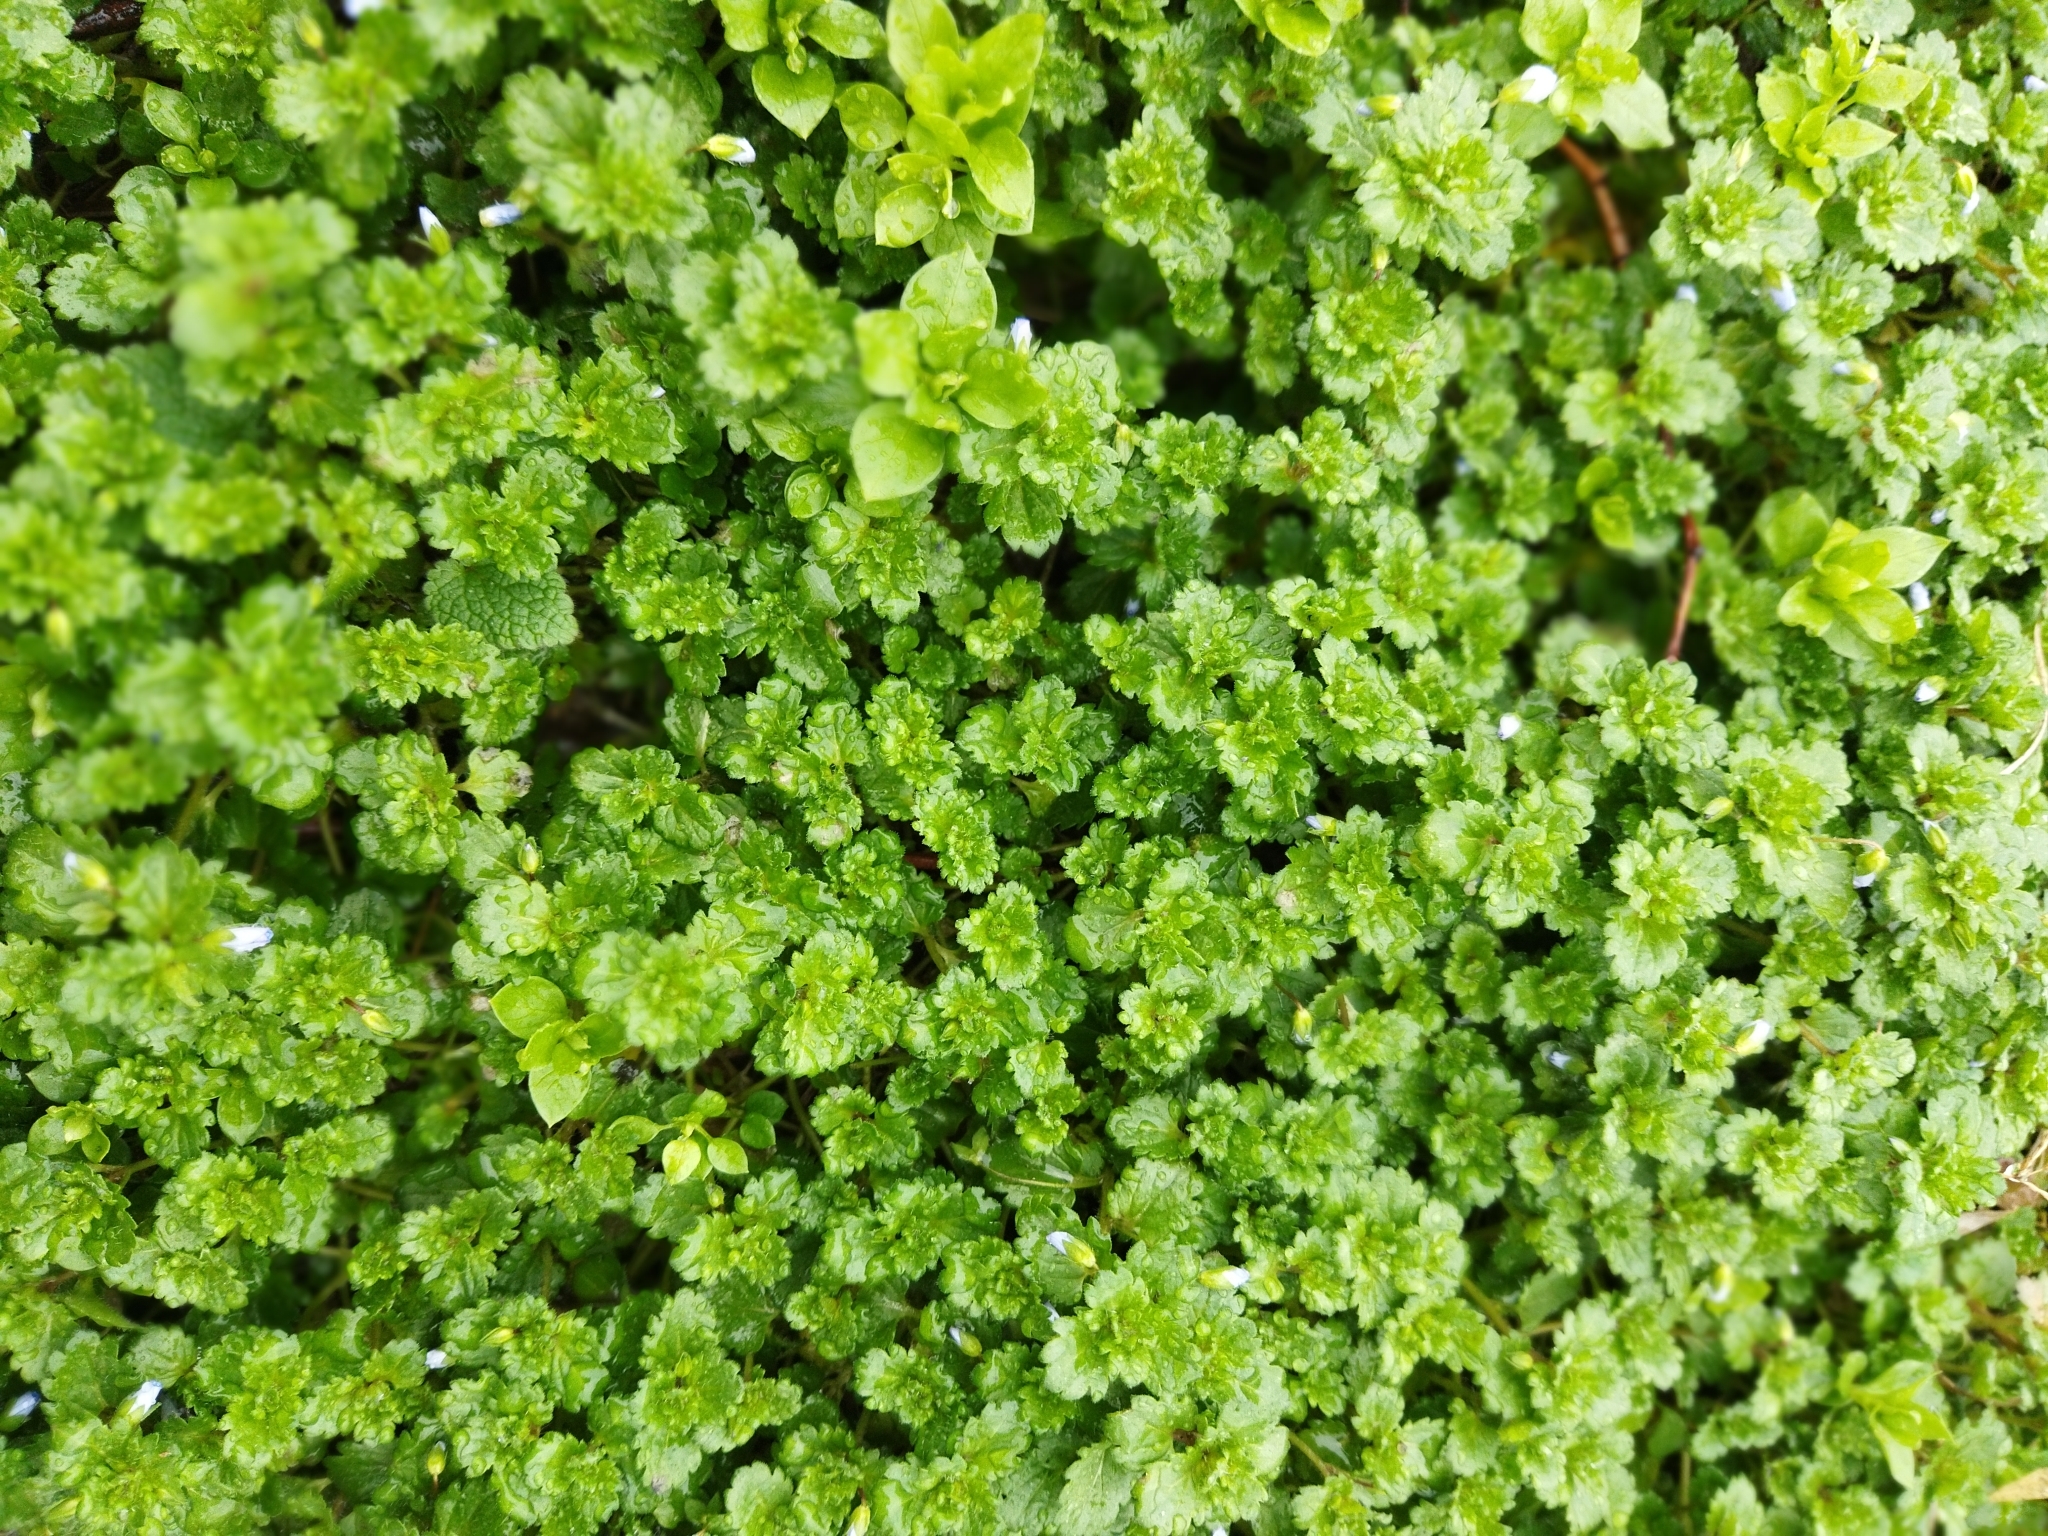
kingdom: Plantae
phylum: Tracheophyta
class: Magnoliopsida
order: Lamiales
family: Plantaginaceae
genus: Veronica
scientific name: Veronica persica
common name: Common field-speedwell
